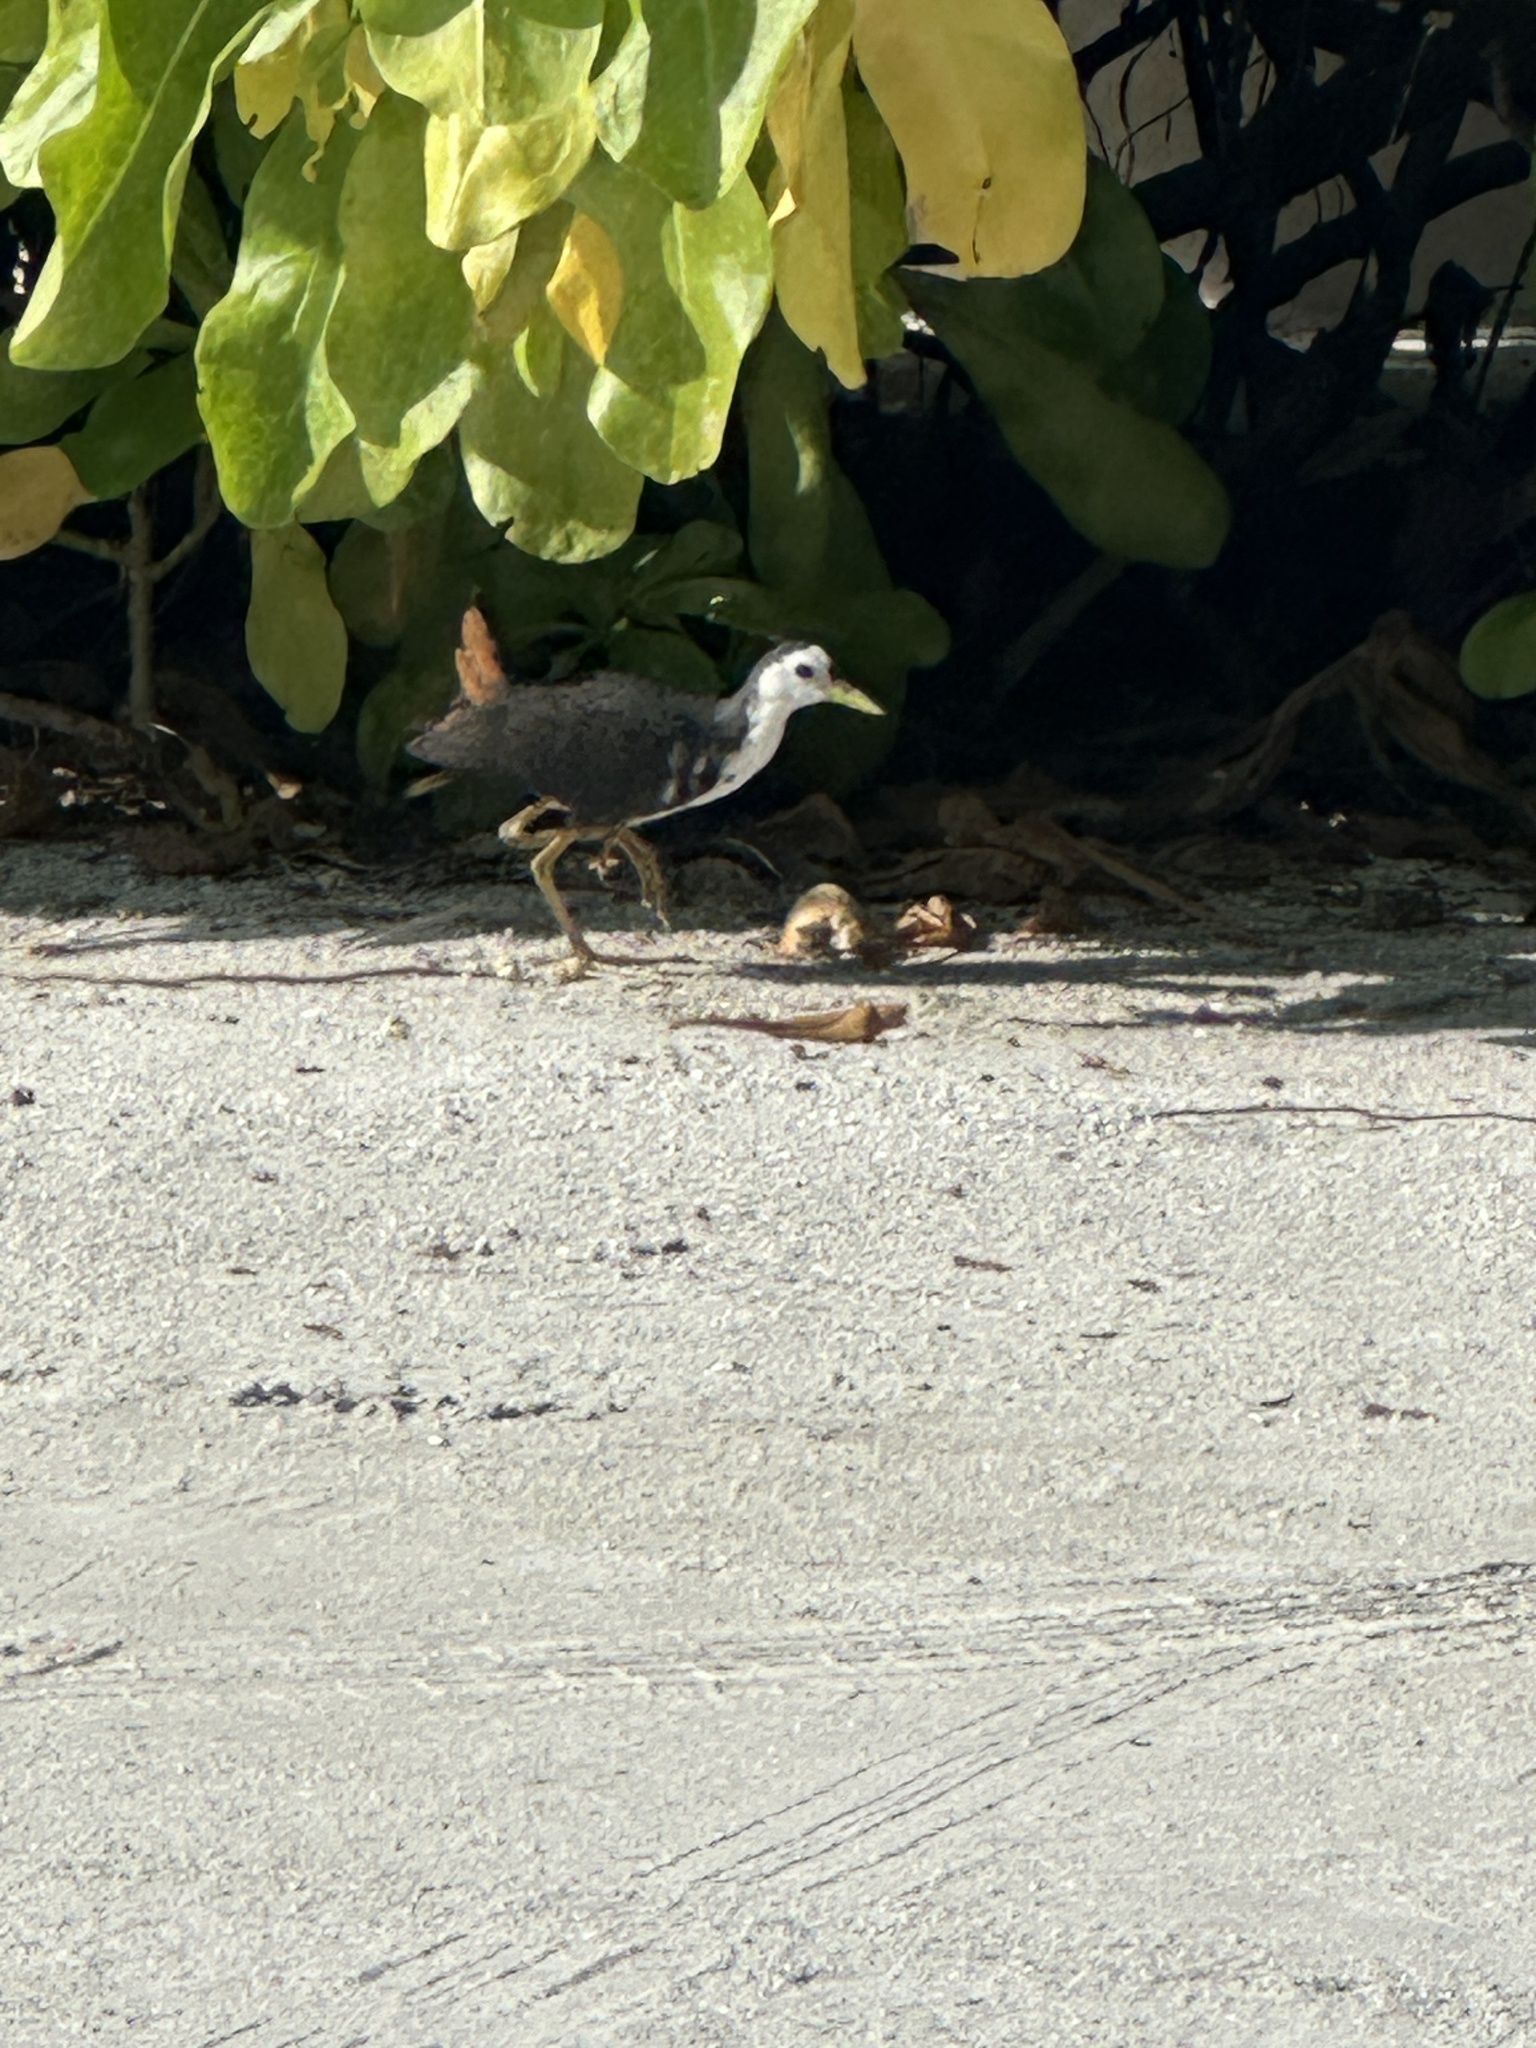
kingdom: Animalia
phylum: Chordata
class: Aves
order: Gruiformes
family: Rallidae
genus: Amaurornis
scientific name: Amaurornis phoenicurus
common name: White-breasted waterhen
